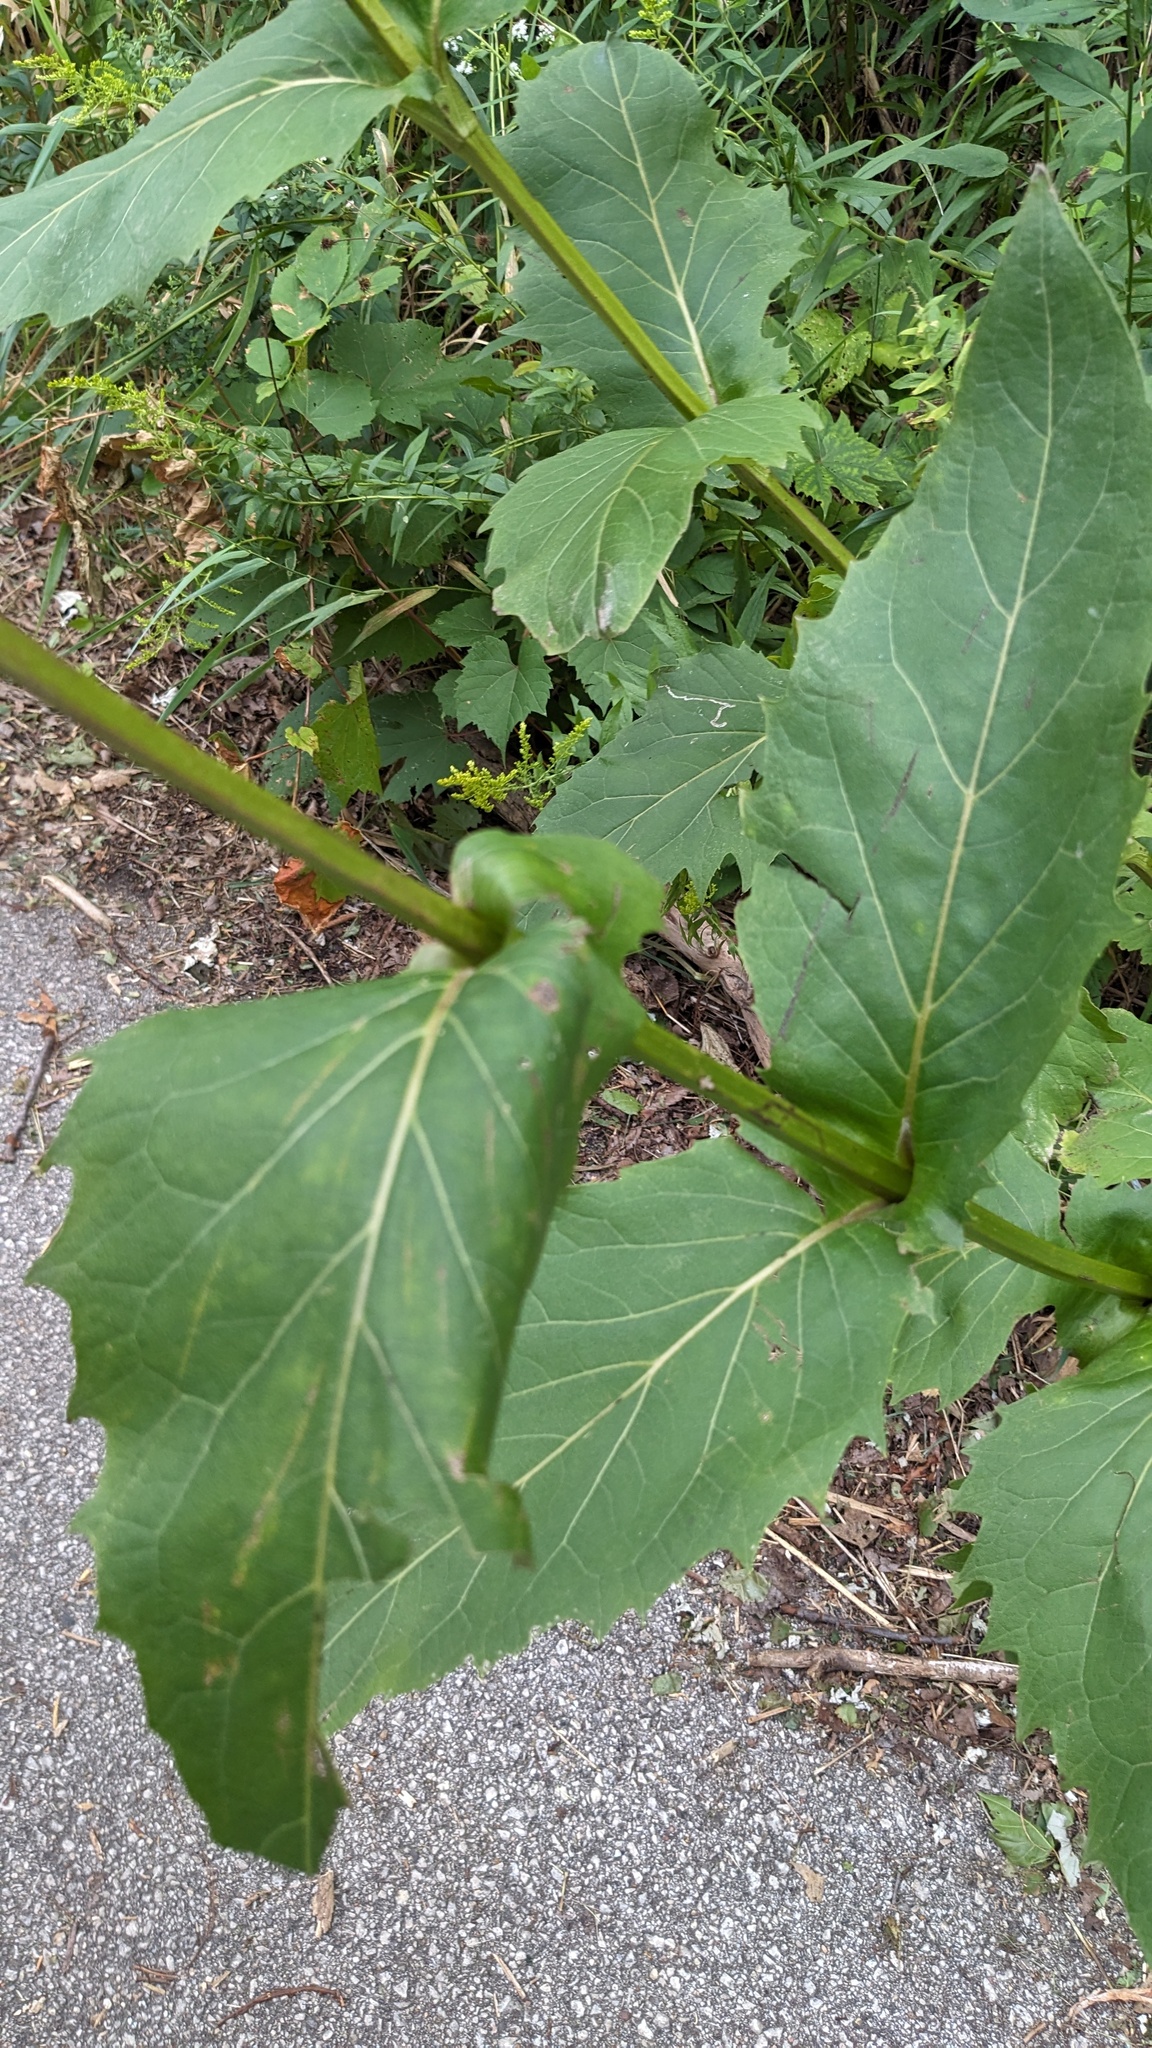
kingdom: Plantae
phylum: Tracheophyta
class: Magnoliopsida
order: Asterales
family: Asteraceae
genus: Silphium
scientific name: Silphium perfoliatum
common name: Cup-plant
